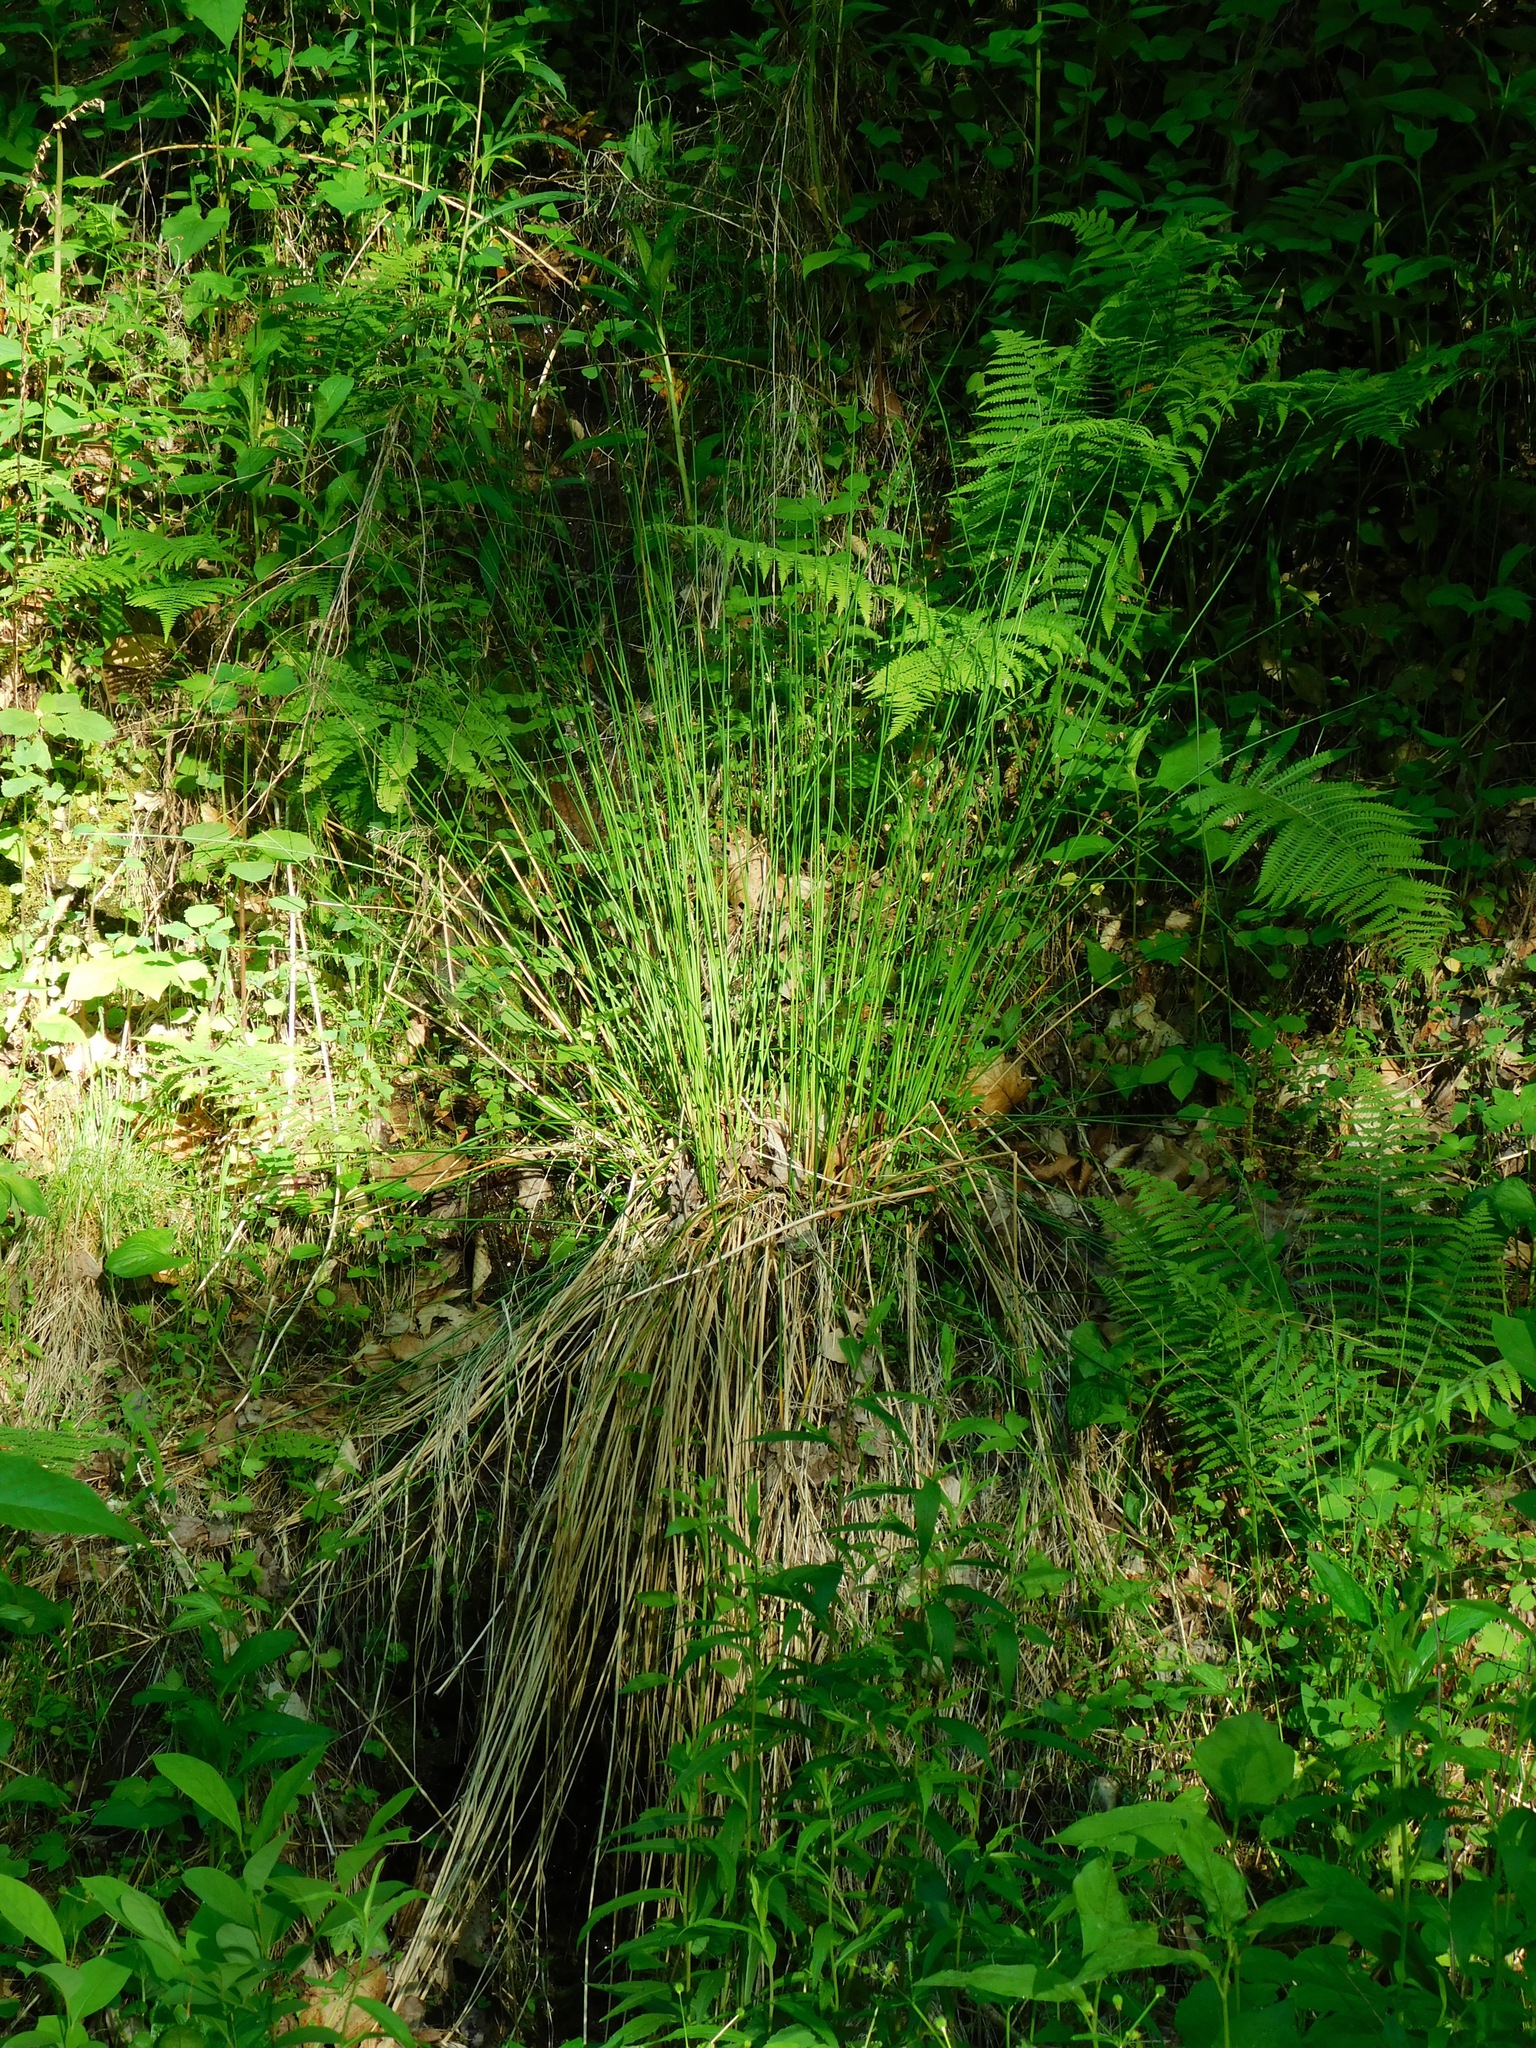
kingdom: Plantae
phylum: Tracheophyta
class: Liliopsida
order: Poales
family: Juncaceae
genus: Juncus
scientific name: Juncus effusus
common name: Soft rush
